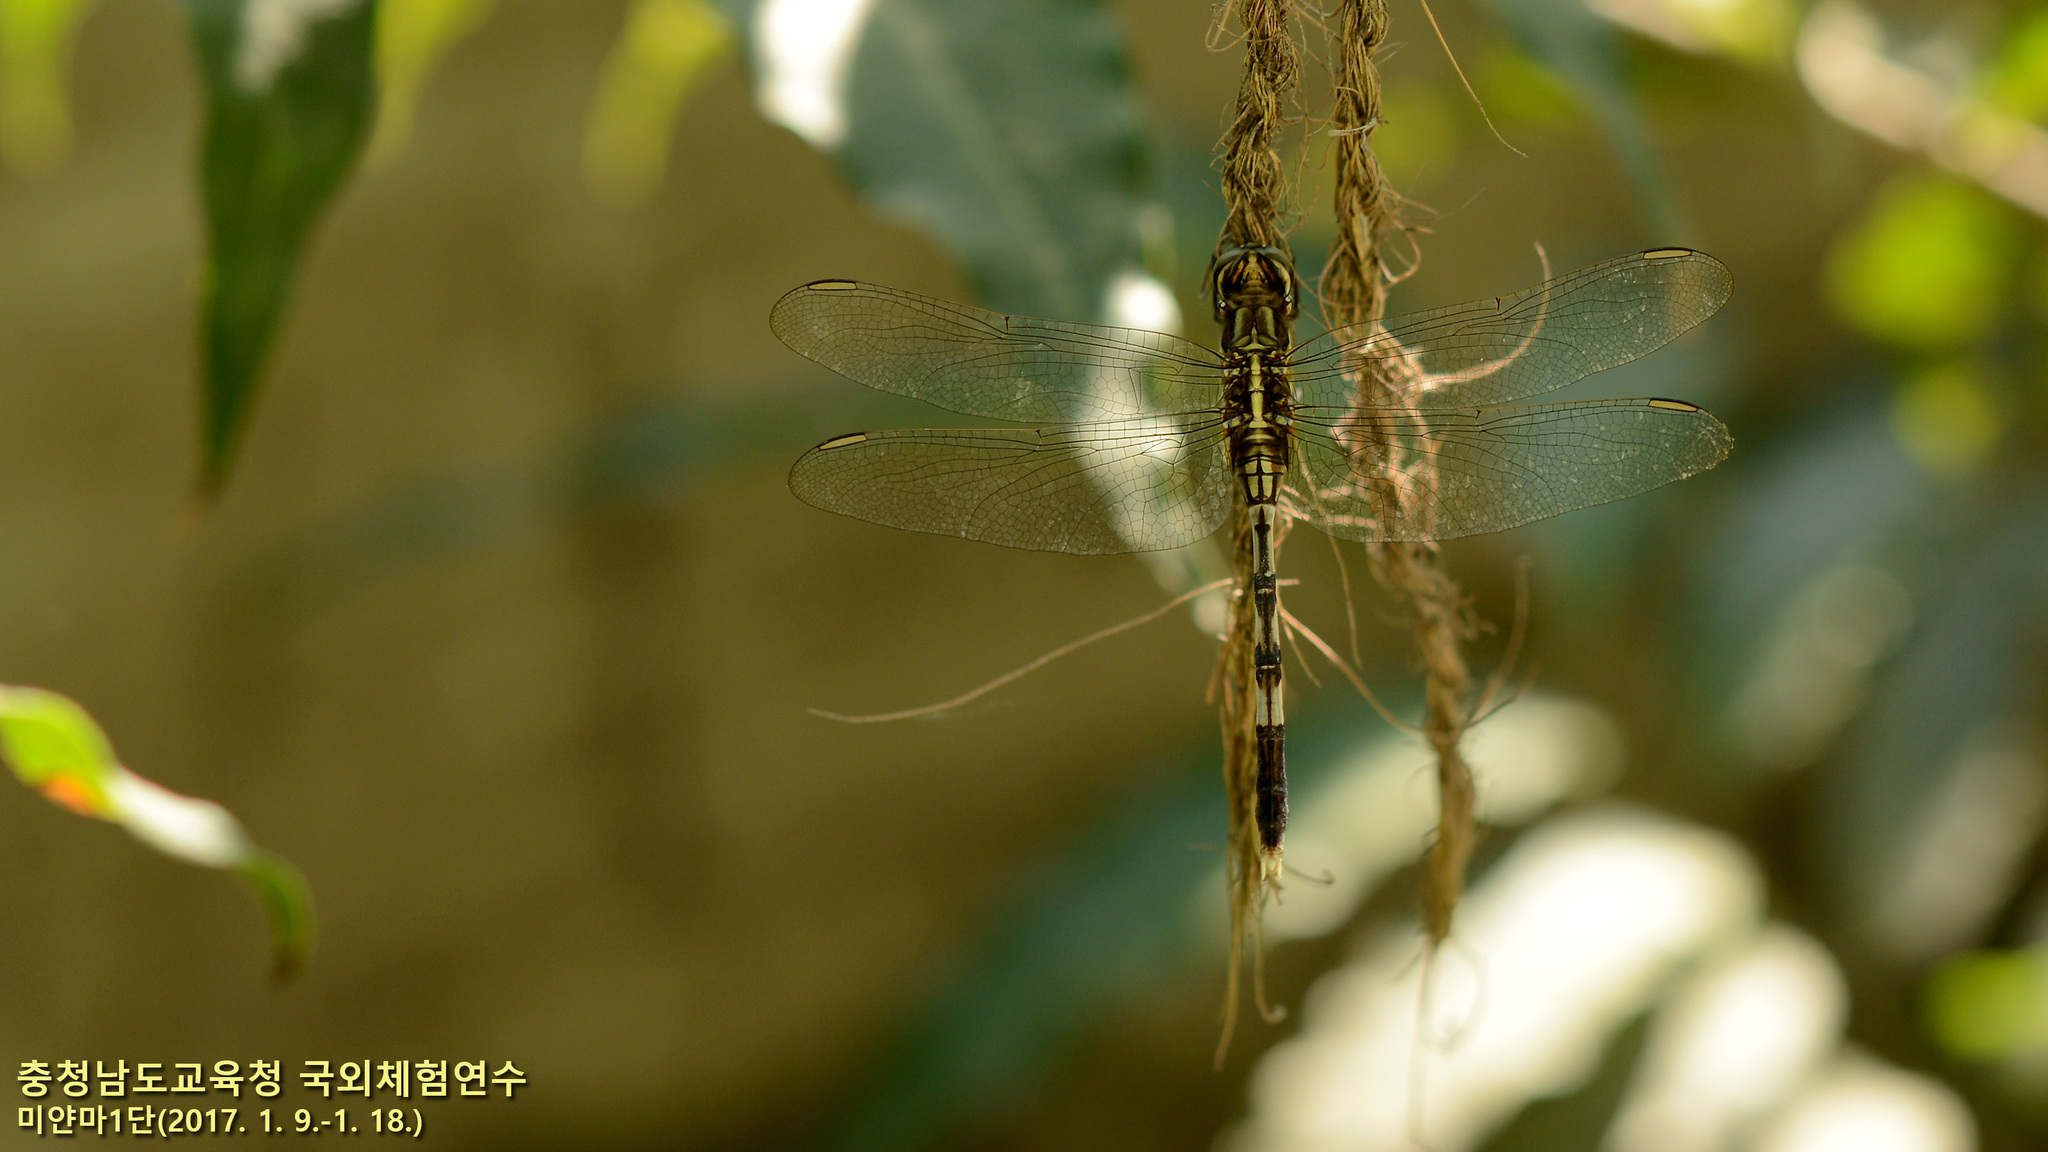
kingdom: Animalia
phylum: Arthropoda
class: Insecta
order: Odonata
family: Libellulidae
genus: Orthetrum
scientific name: Orthetrum sabina
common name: Slender skimmer
